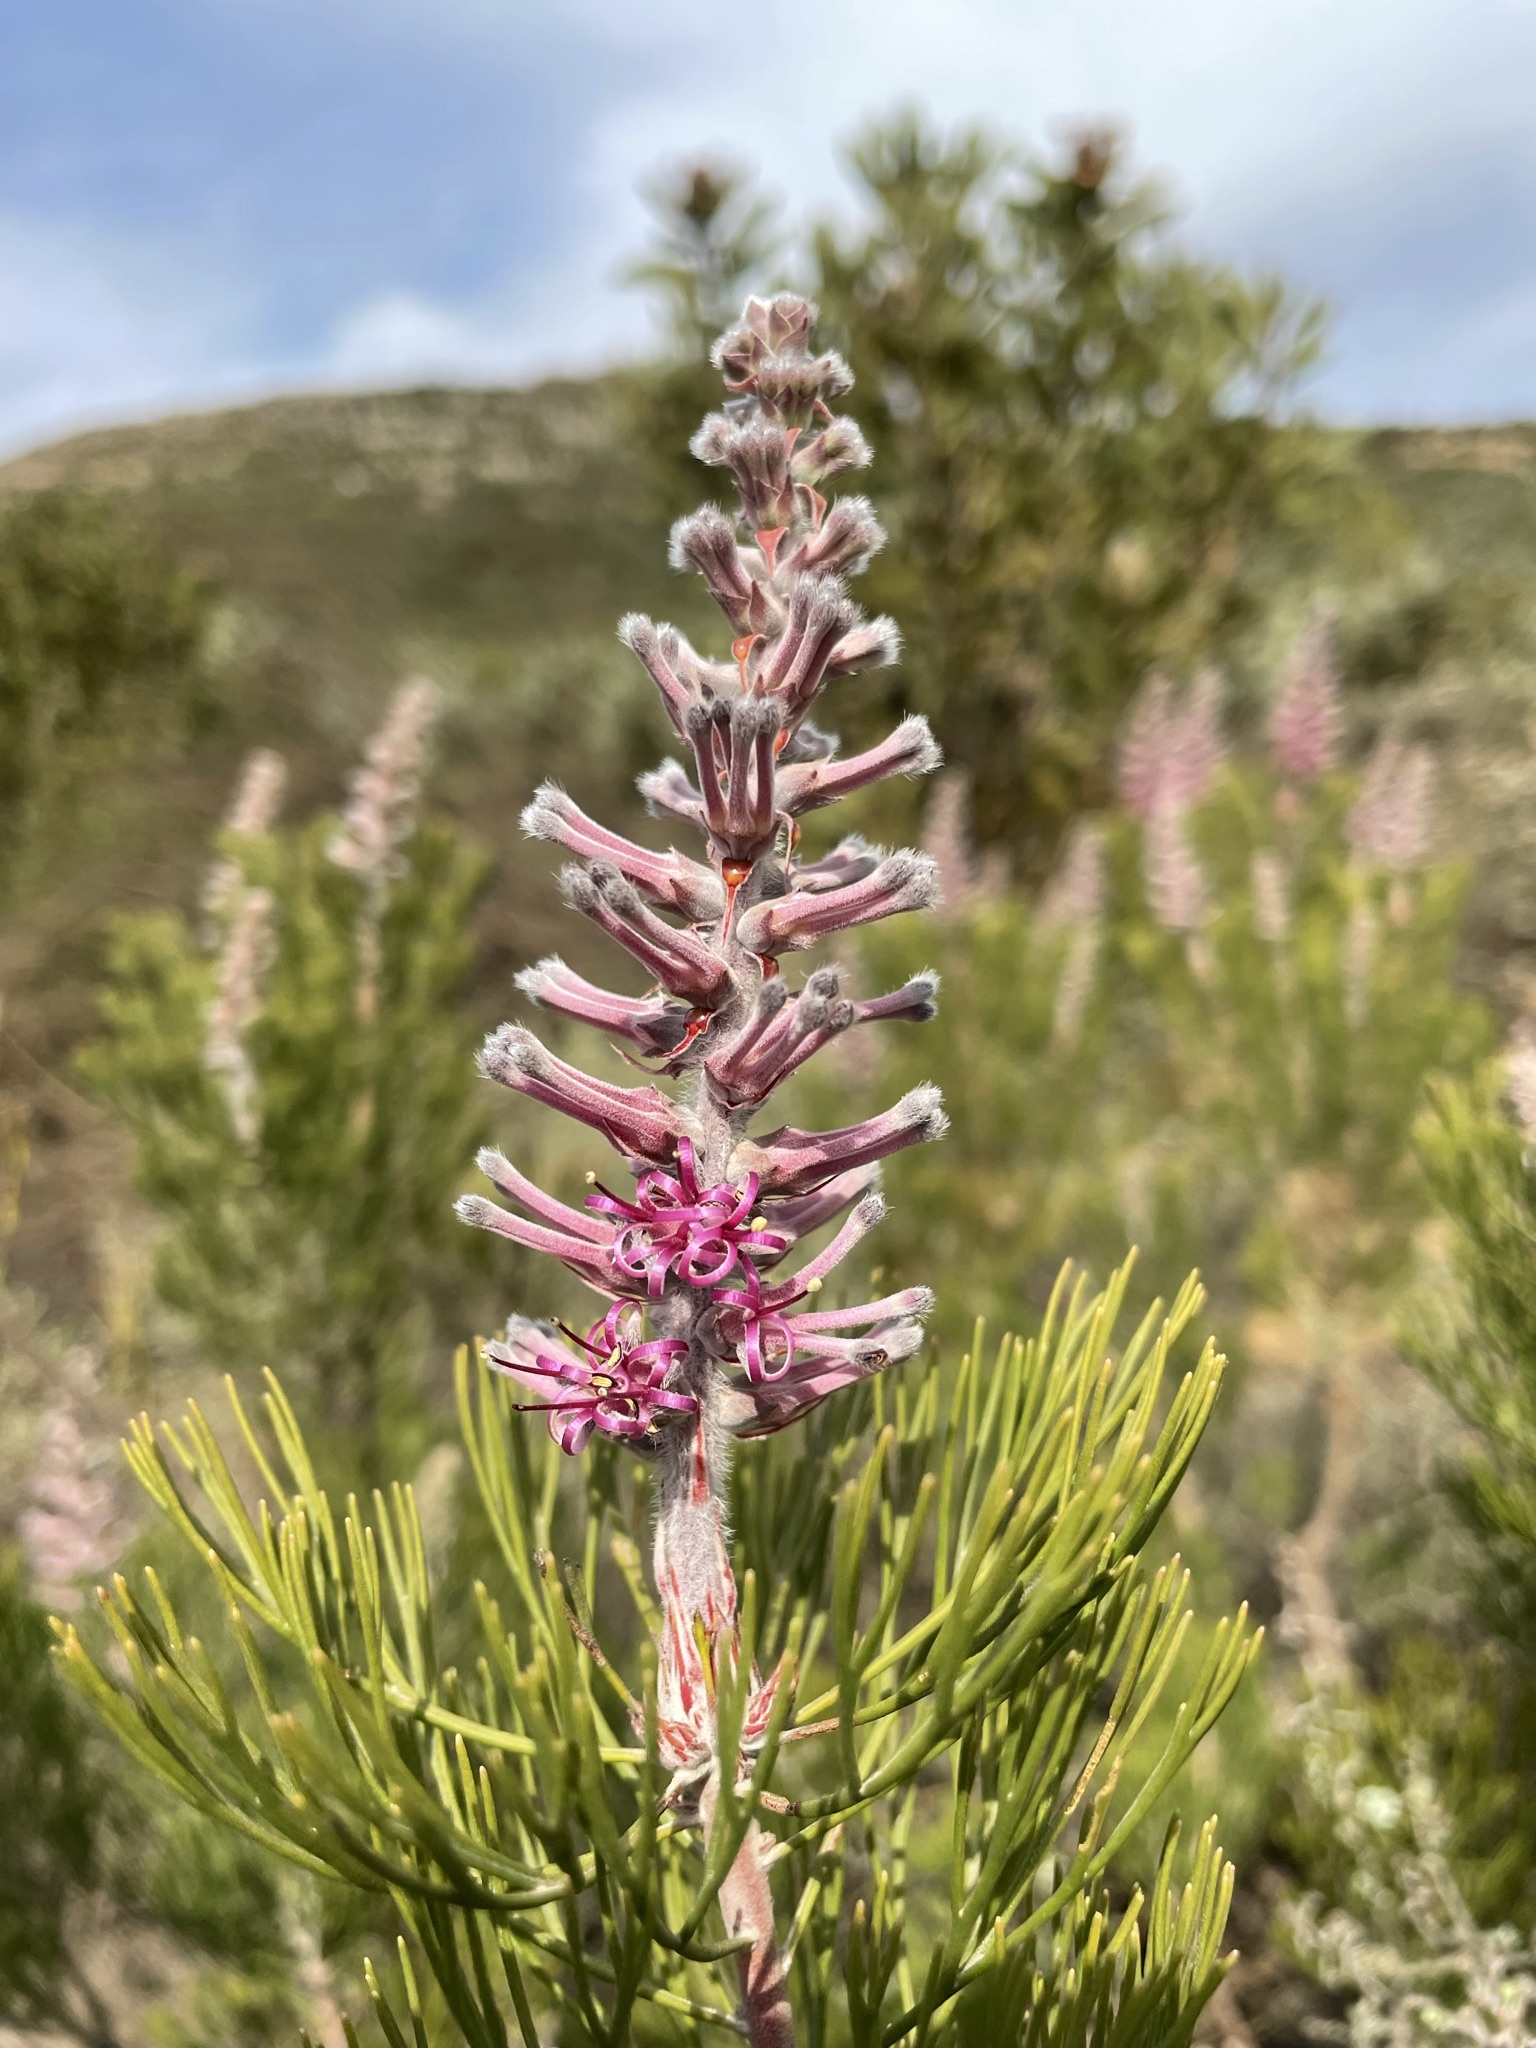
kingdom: Plantae
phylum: Tracheophyta
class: Magnoliopsida
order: Proteales
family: Proteaceae
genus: Paranomus
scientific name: Paranomus bracteolaris
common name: Bokkeveld tree sceptre
